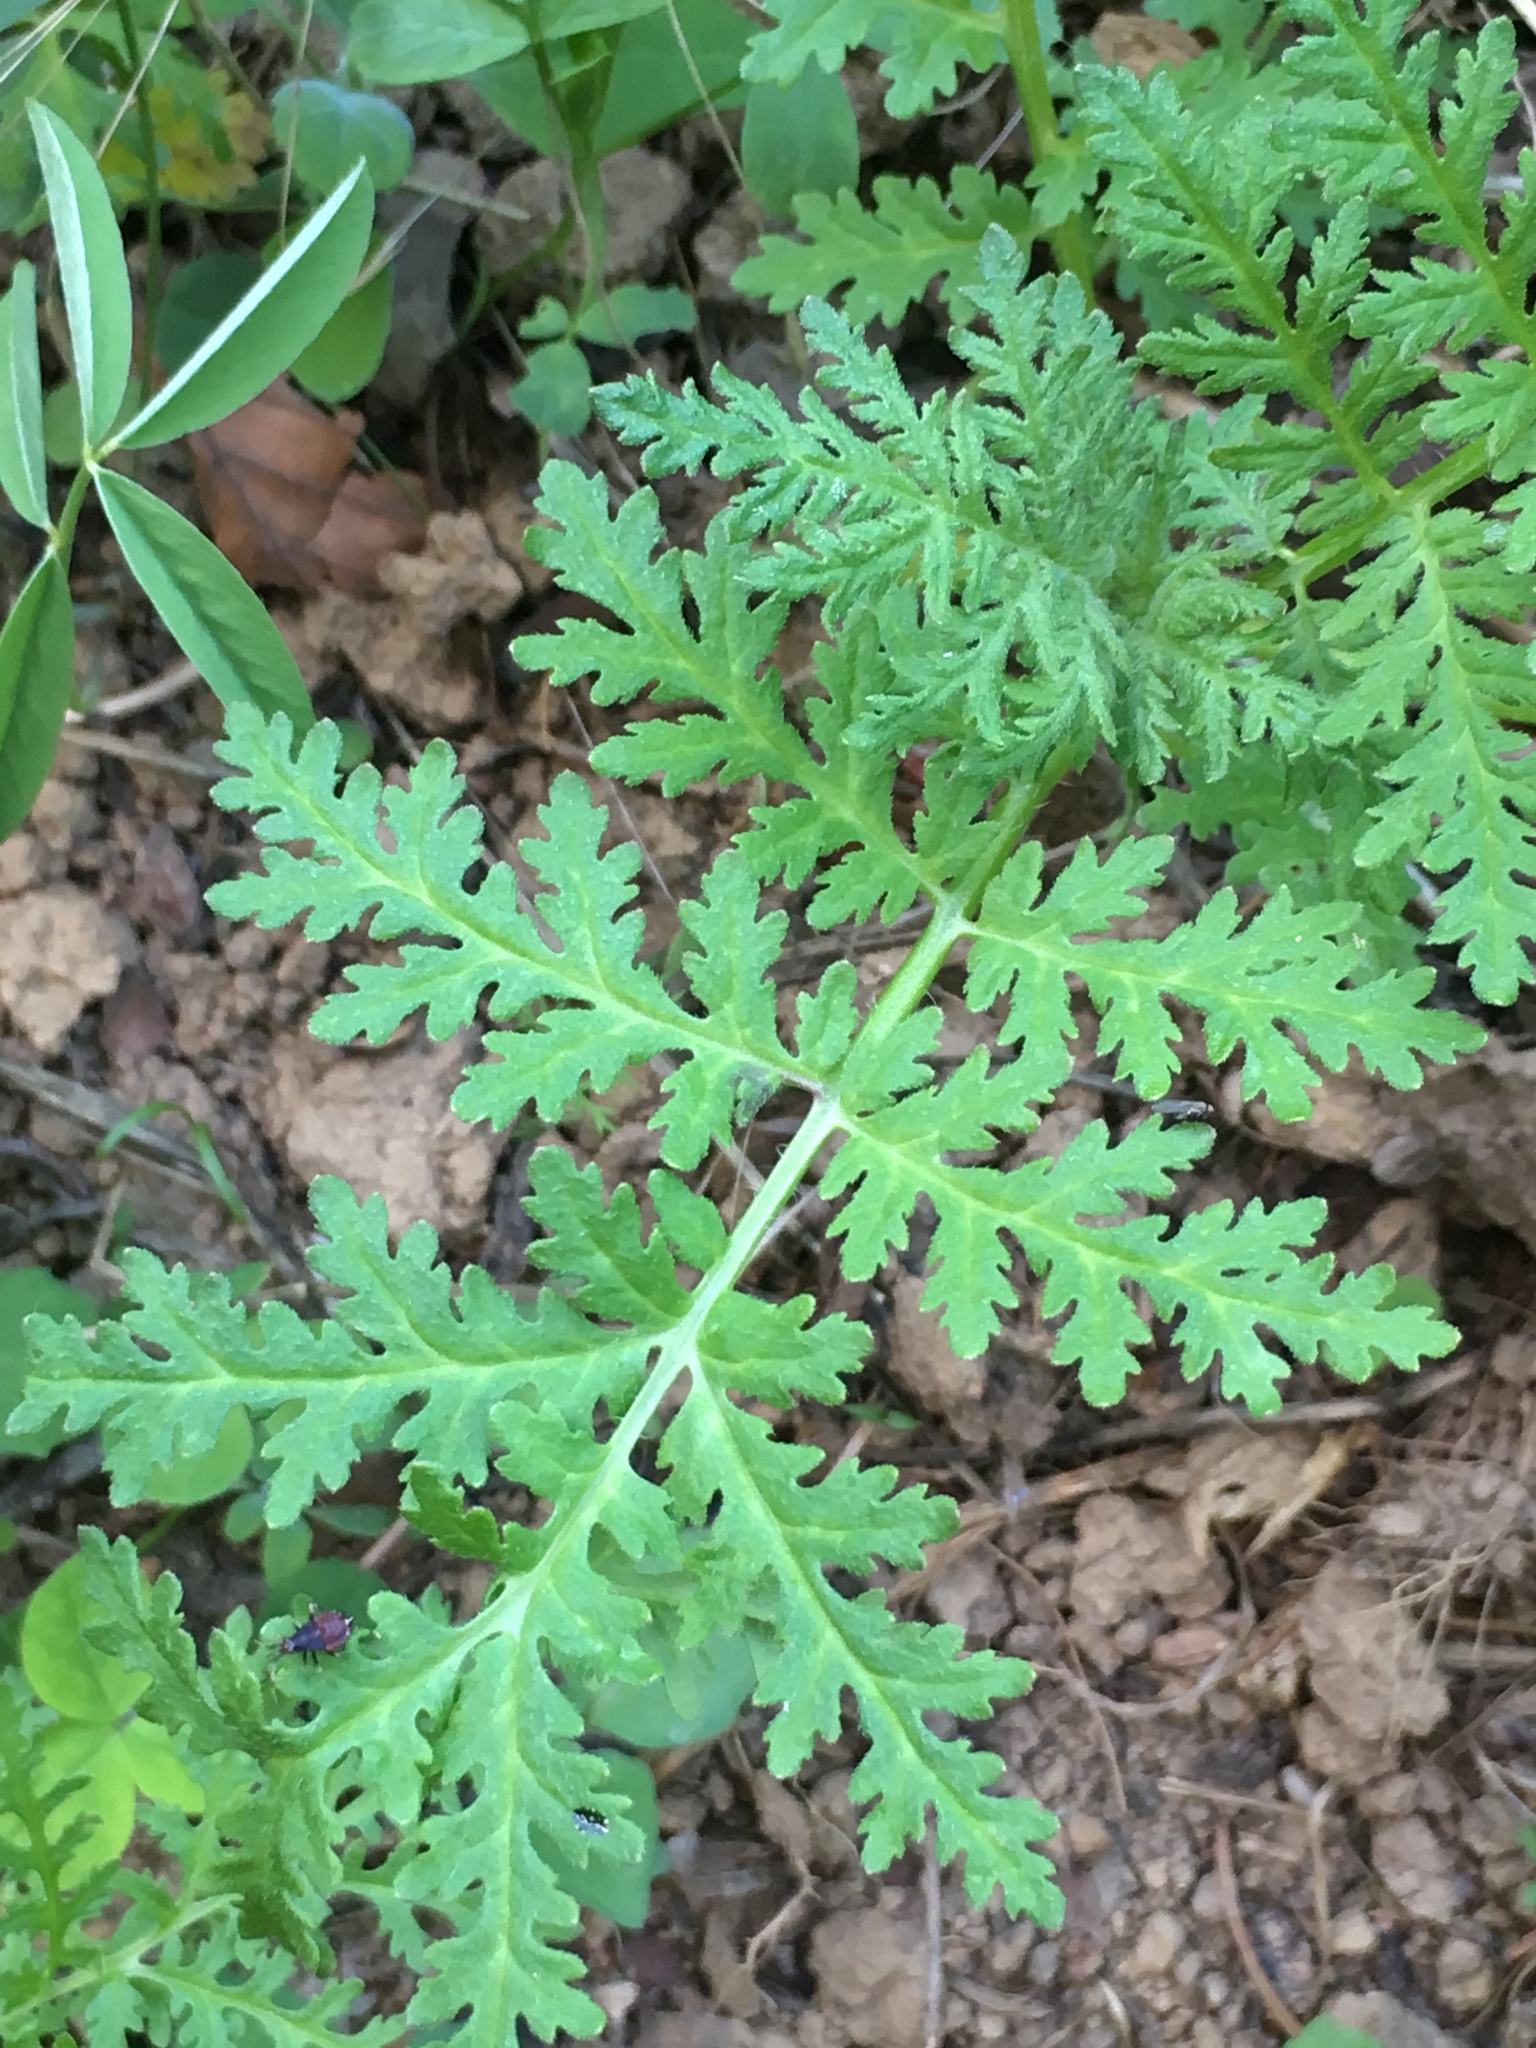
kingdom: Plantae
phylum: Tracheophyta
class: Magnoliopsida
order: Boraginales
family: Hydrophyllaceae
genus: Phacelia
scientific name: Phacelia tanacetifolia
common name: Phacelia
